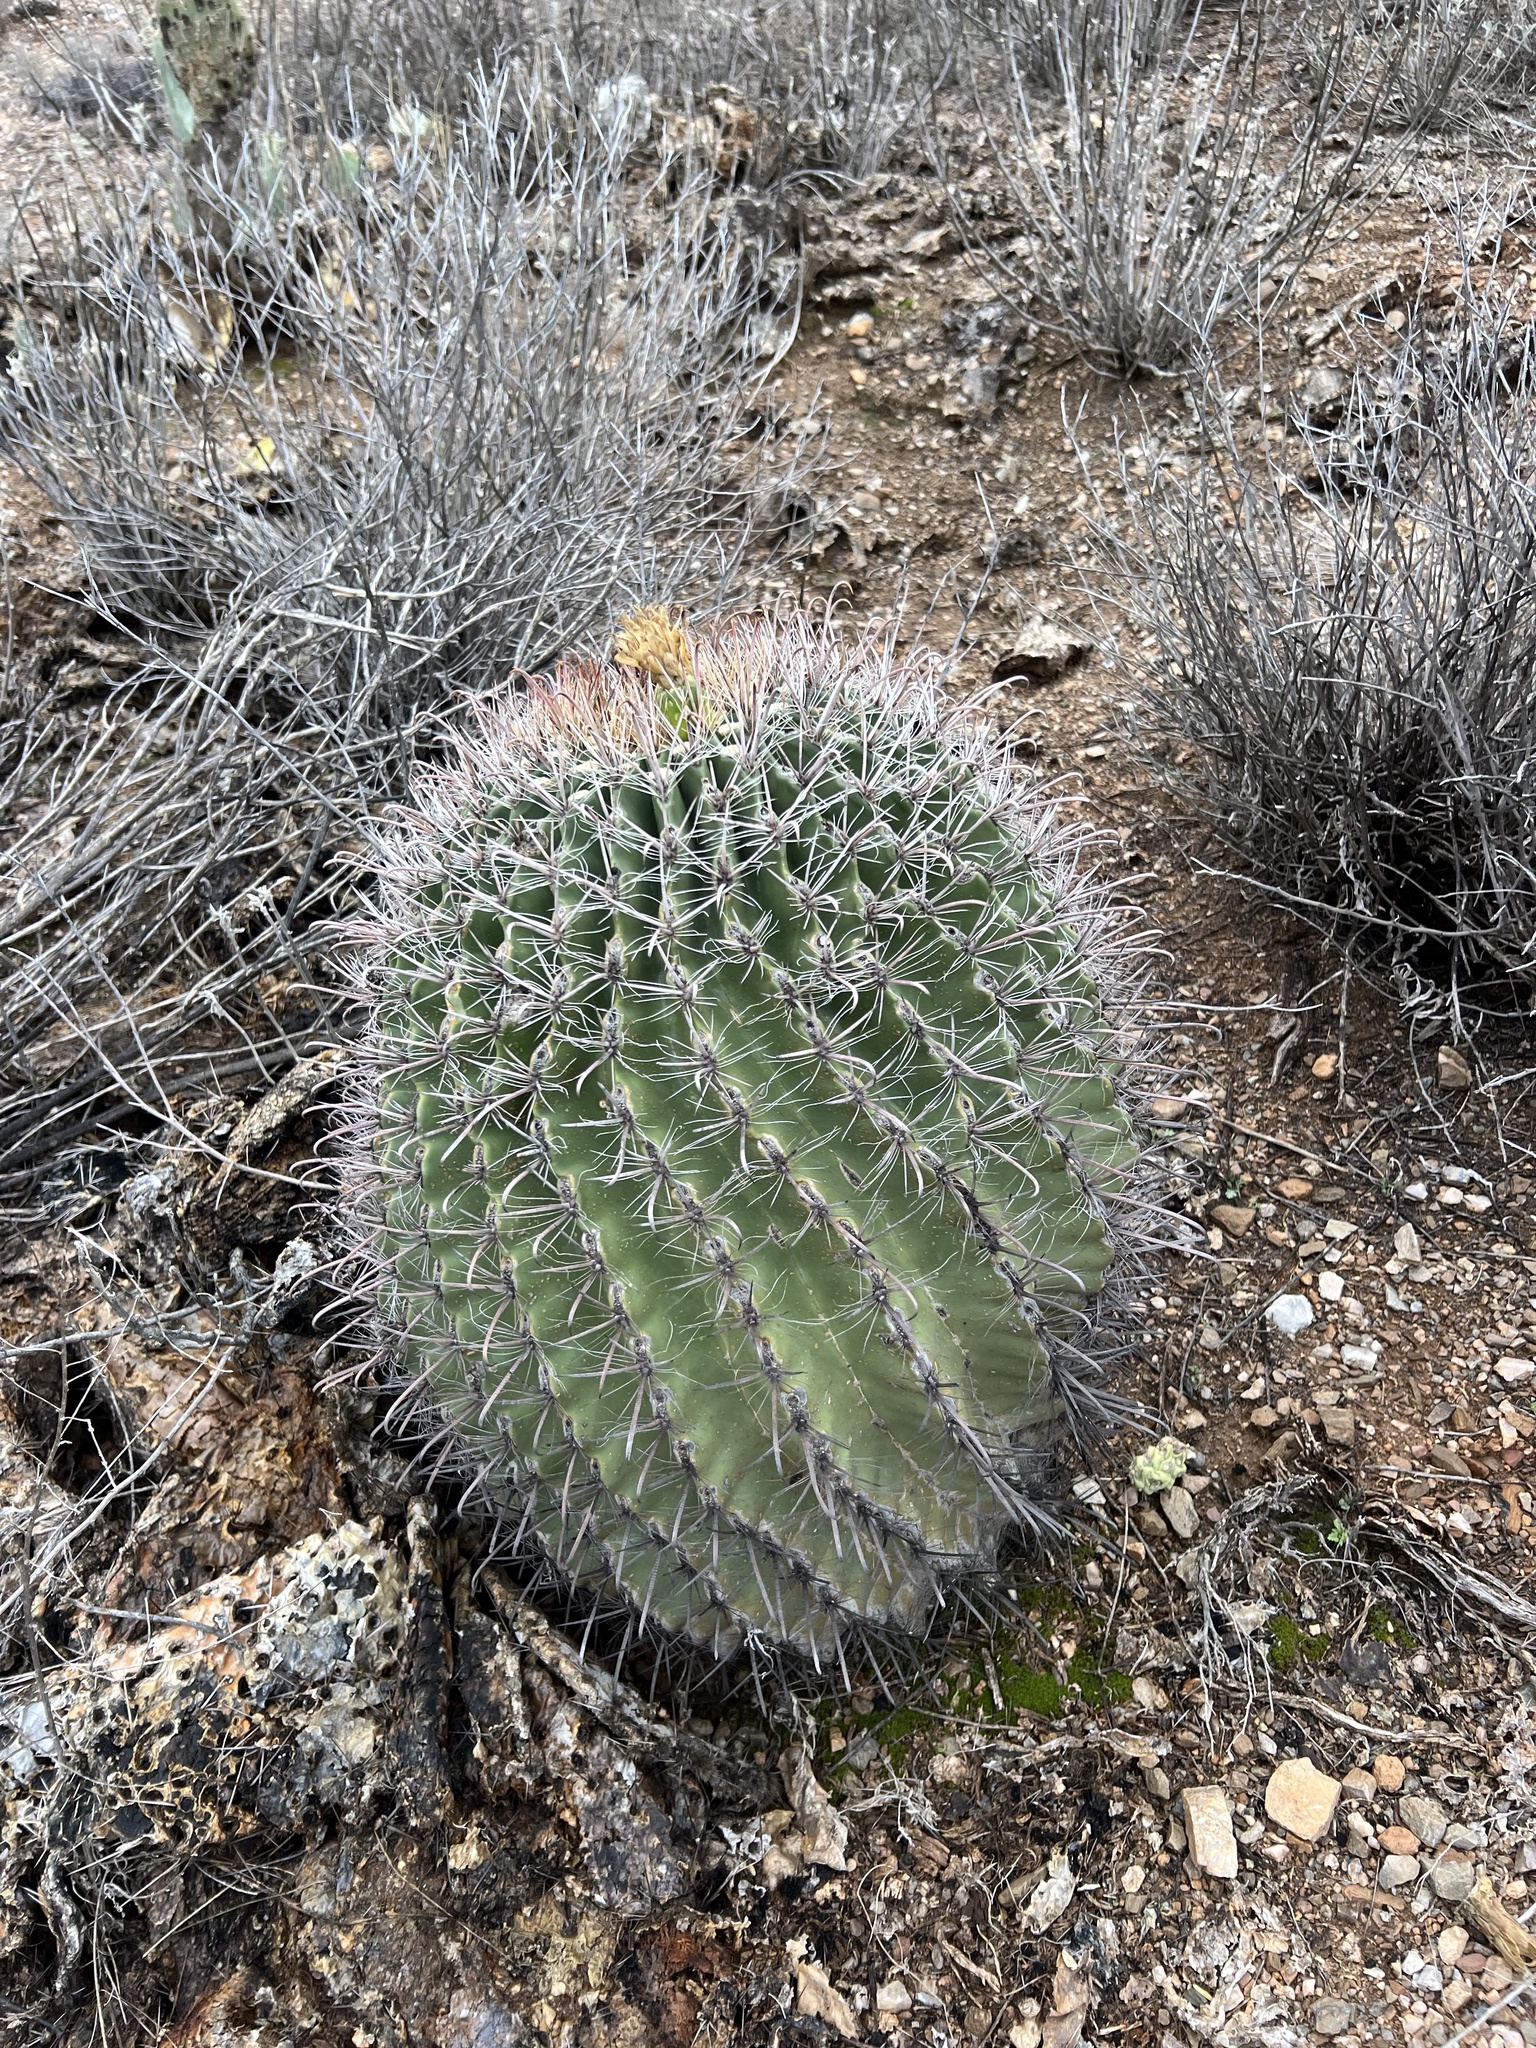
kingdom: Plantae
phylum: Tracheophyta
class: Magnoliopsida
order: Caryophyllales
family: Cactaceae
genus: Ferocactus
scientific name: Ferocactus wislizeni
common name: Candy barrel cactus
